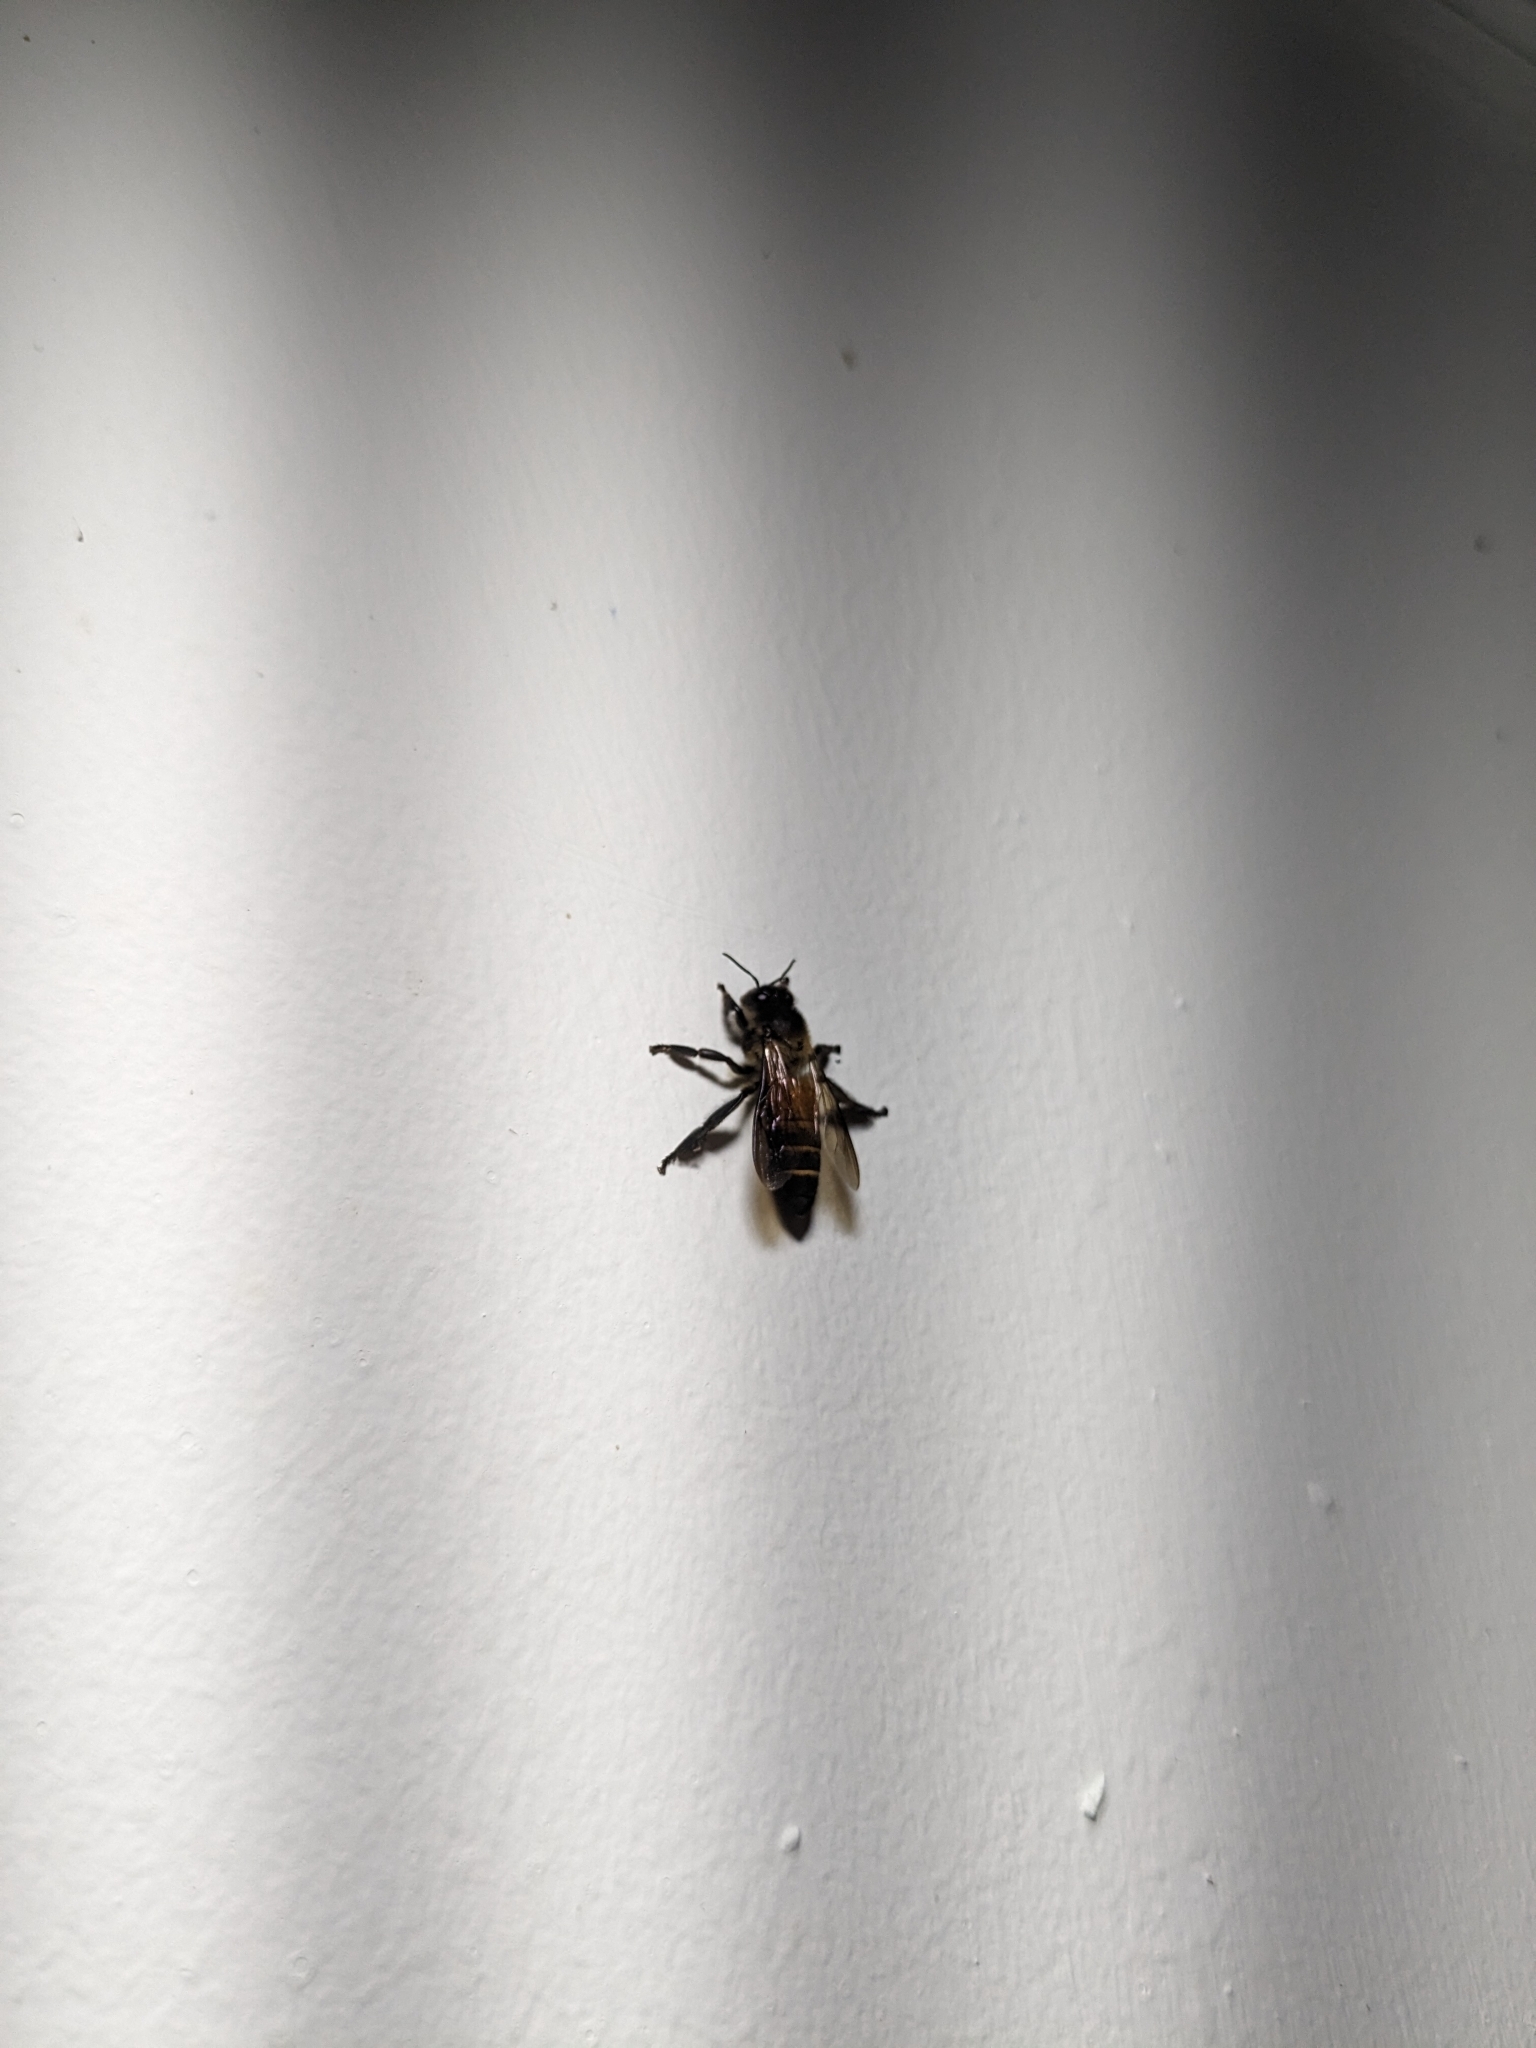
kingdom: Animalia
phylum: Arthropoda
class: Insecta
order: Hymenoptera
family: Apidae
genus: Apis
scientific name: Apis dorsata
